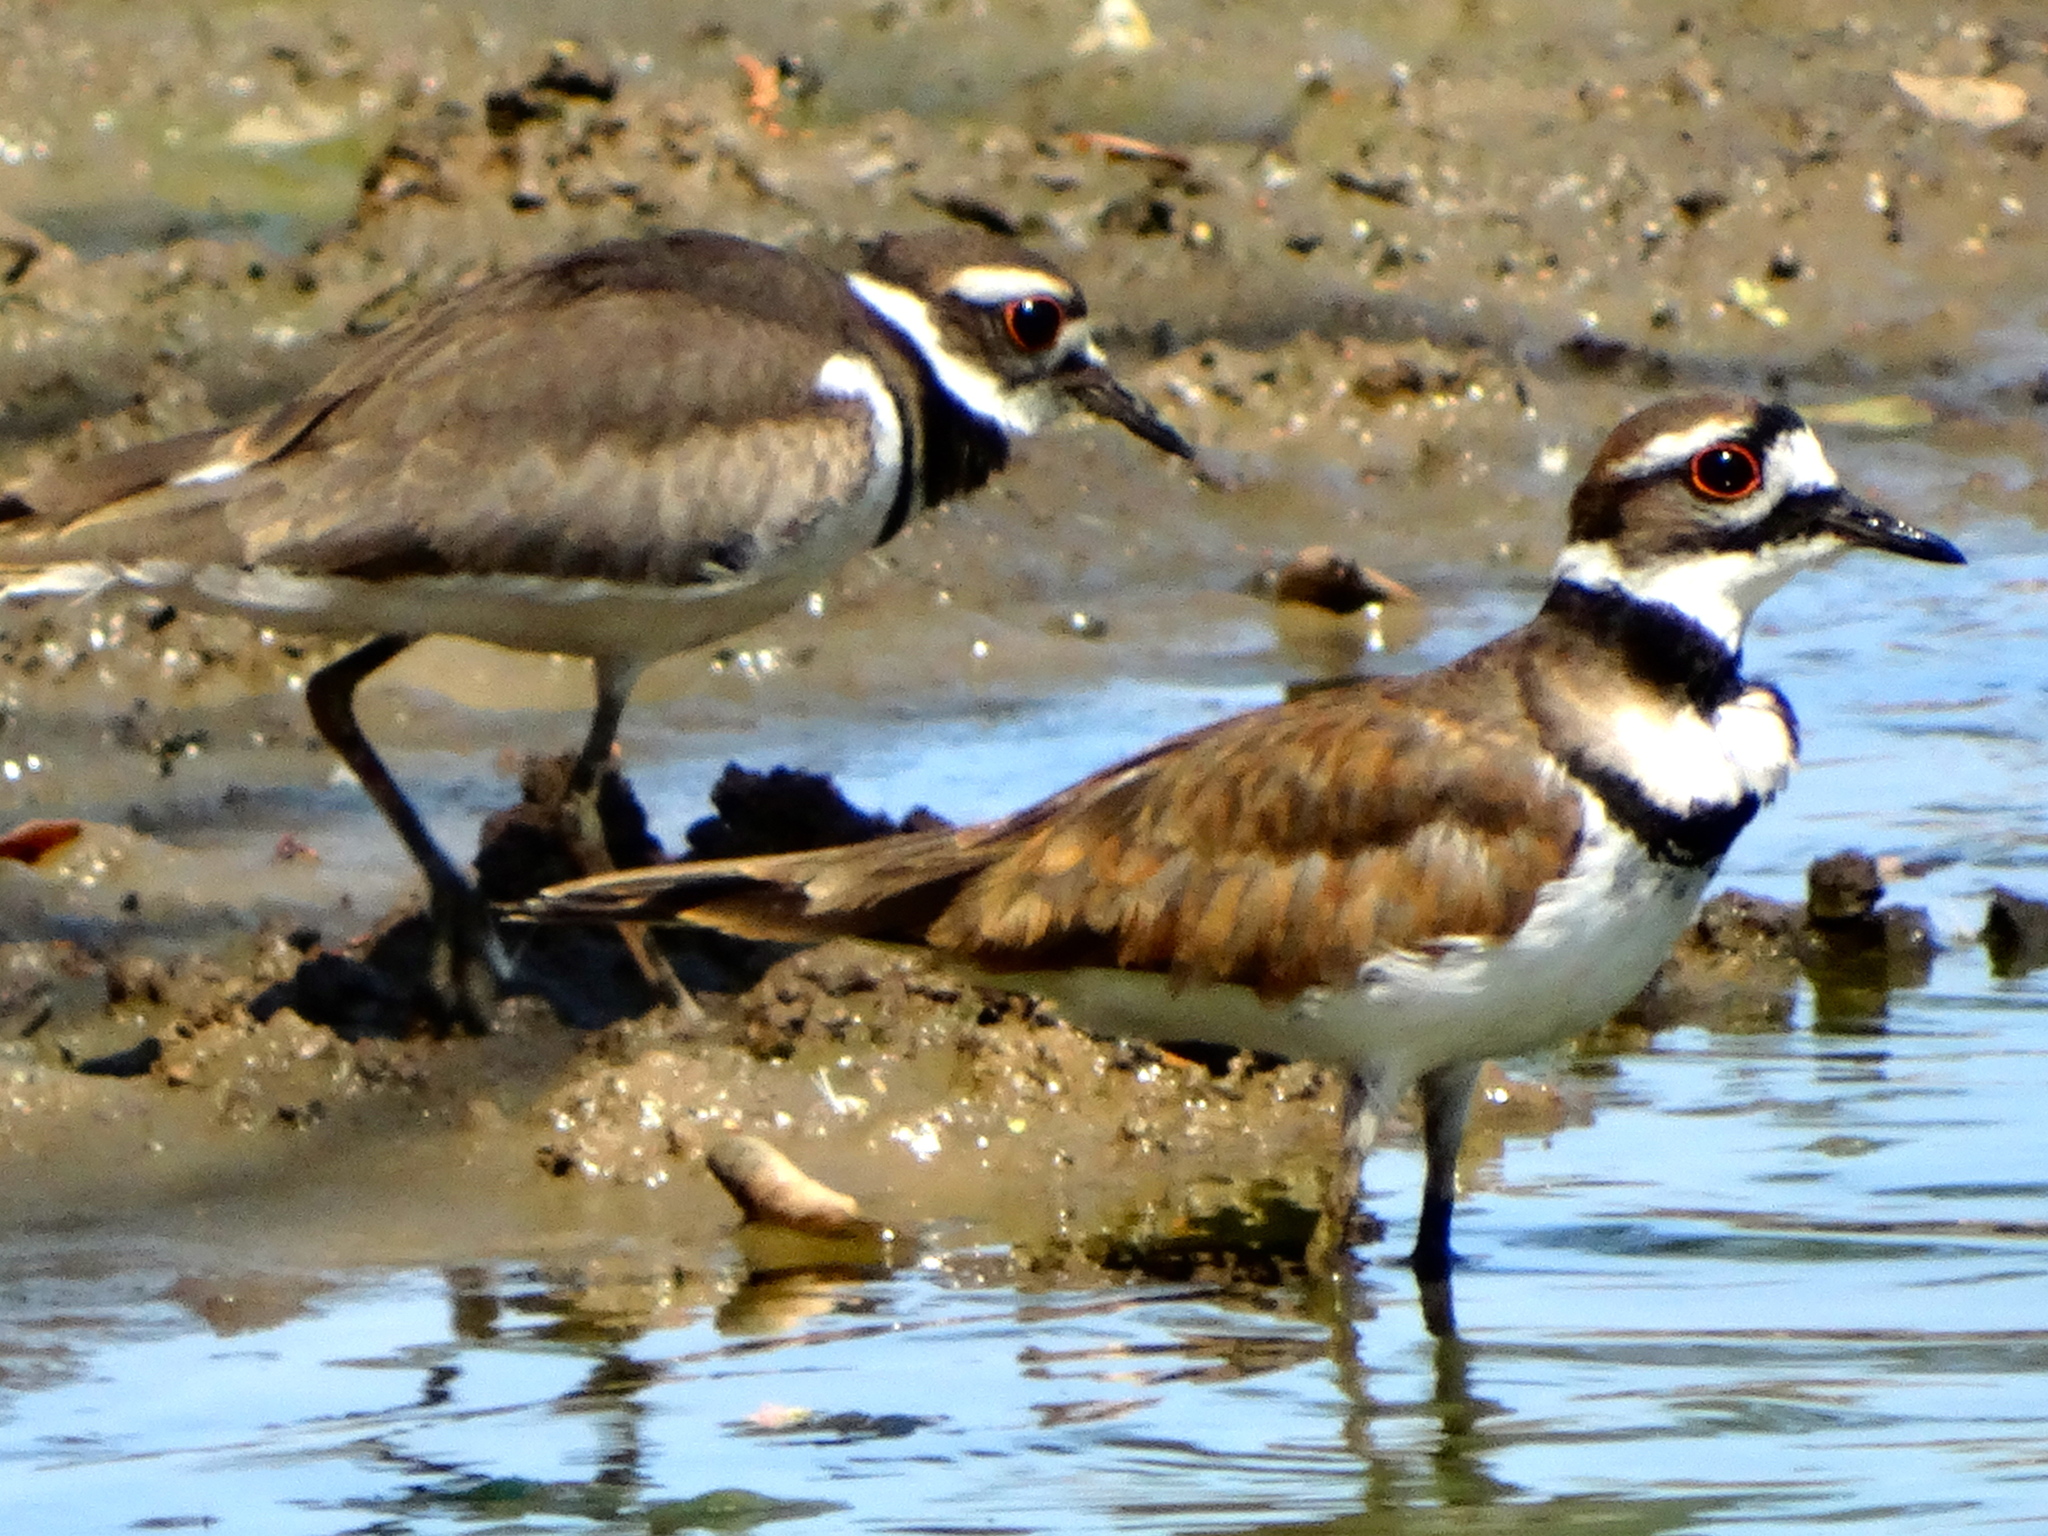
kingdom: Animalia
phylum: Chordata
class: Aves
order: Charadriiformes
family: Charadriidae
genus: Charadrius
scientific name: Charadrius vociferus
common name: Killdeer
